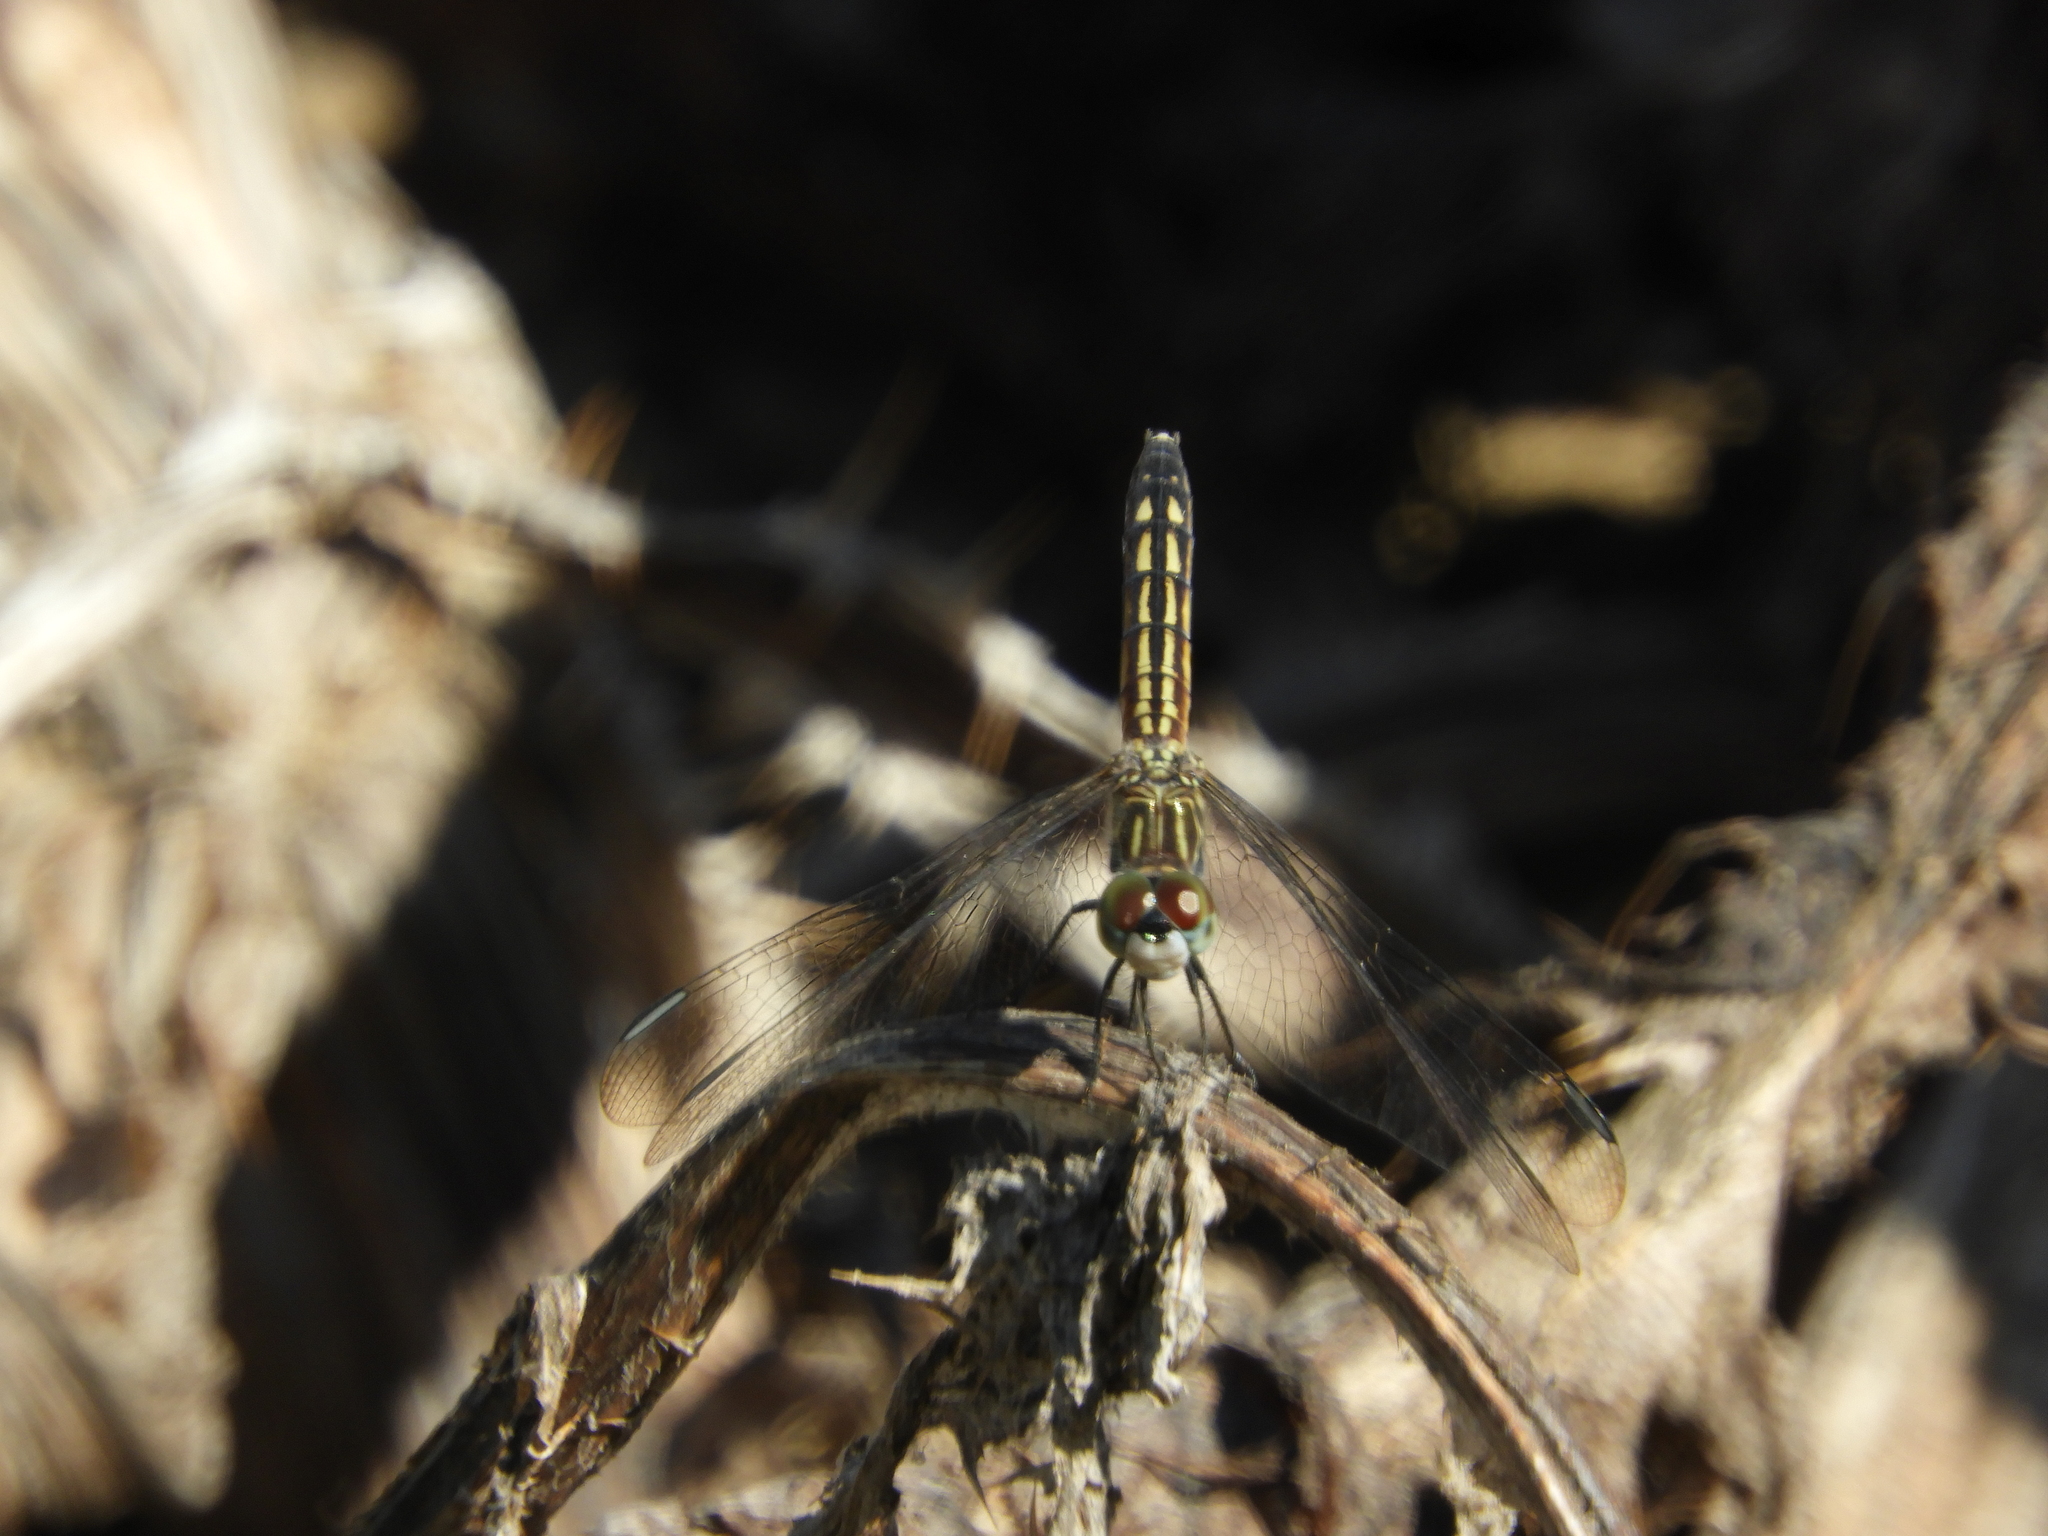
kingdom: Animalia
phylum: Arthropoda
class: Insecta
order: Odonata
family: Libellulidae
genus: Pachydiplax
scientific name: Pachydiplax longipennis
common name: Blue dasher
